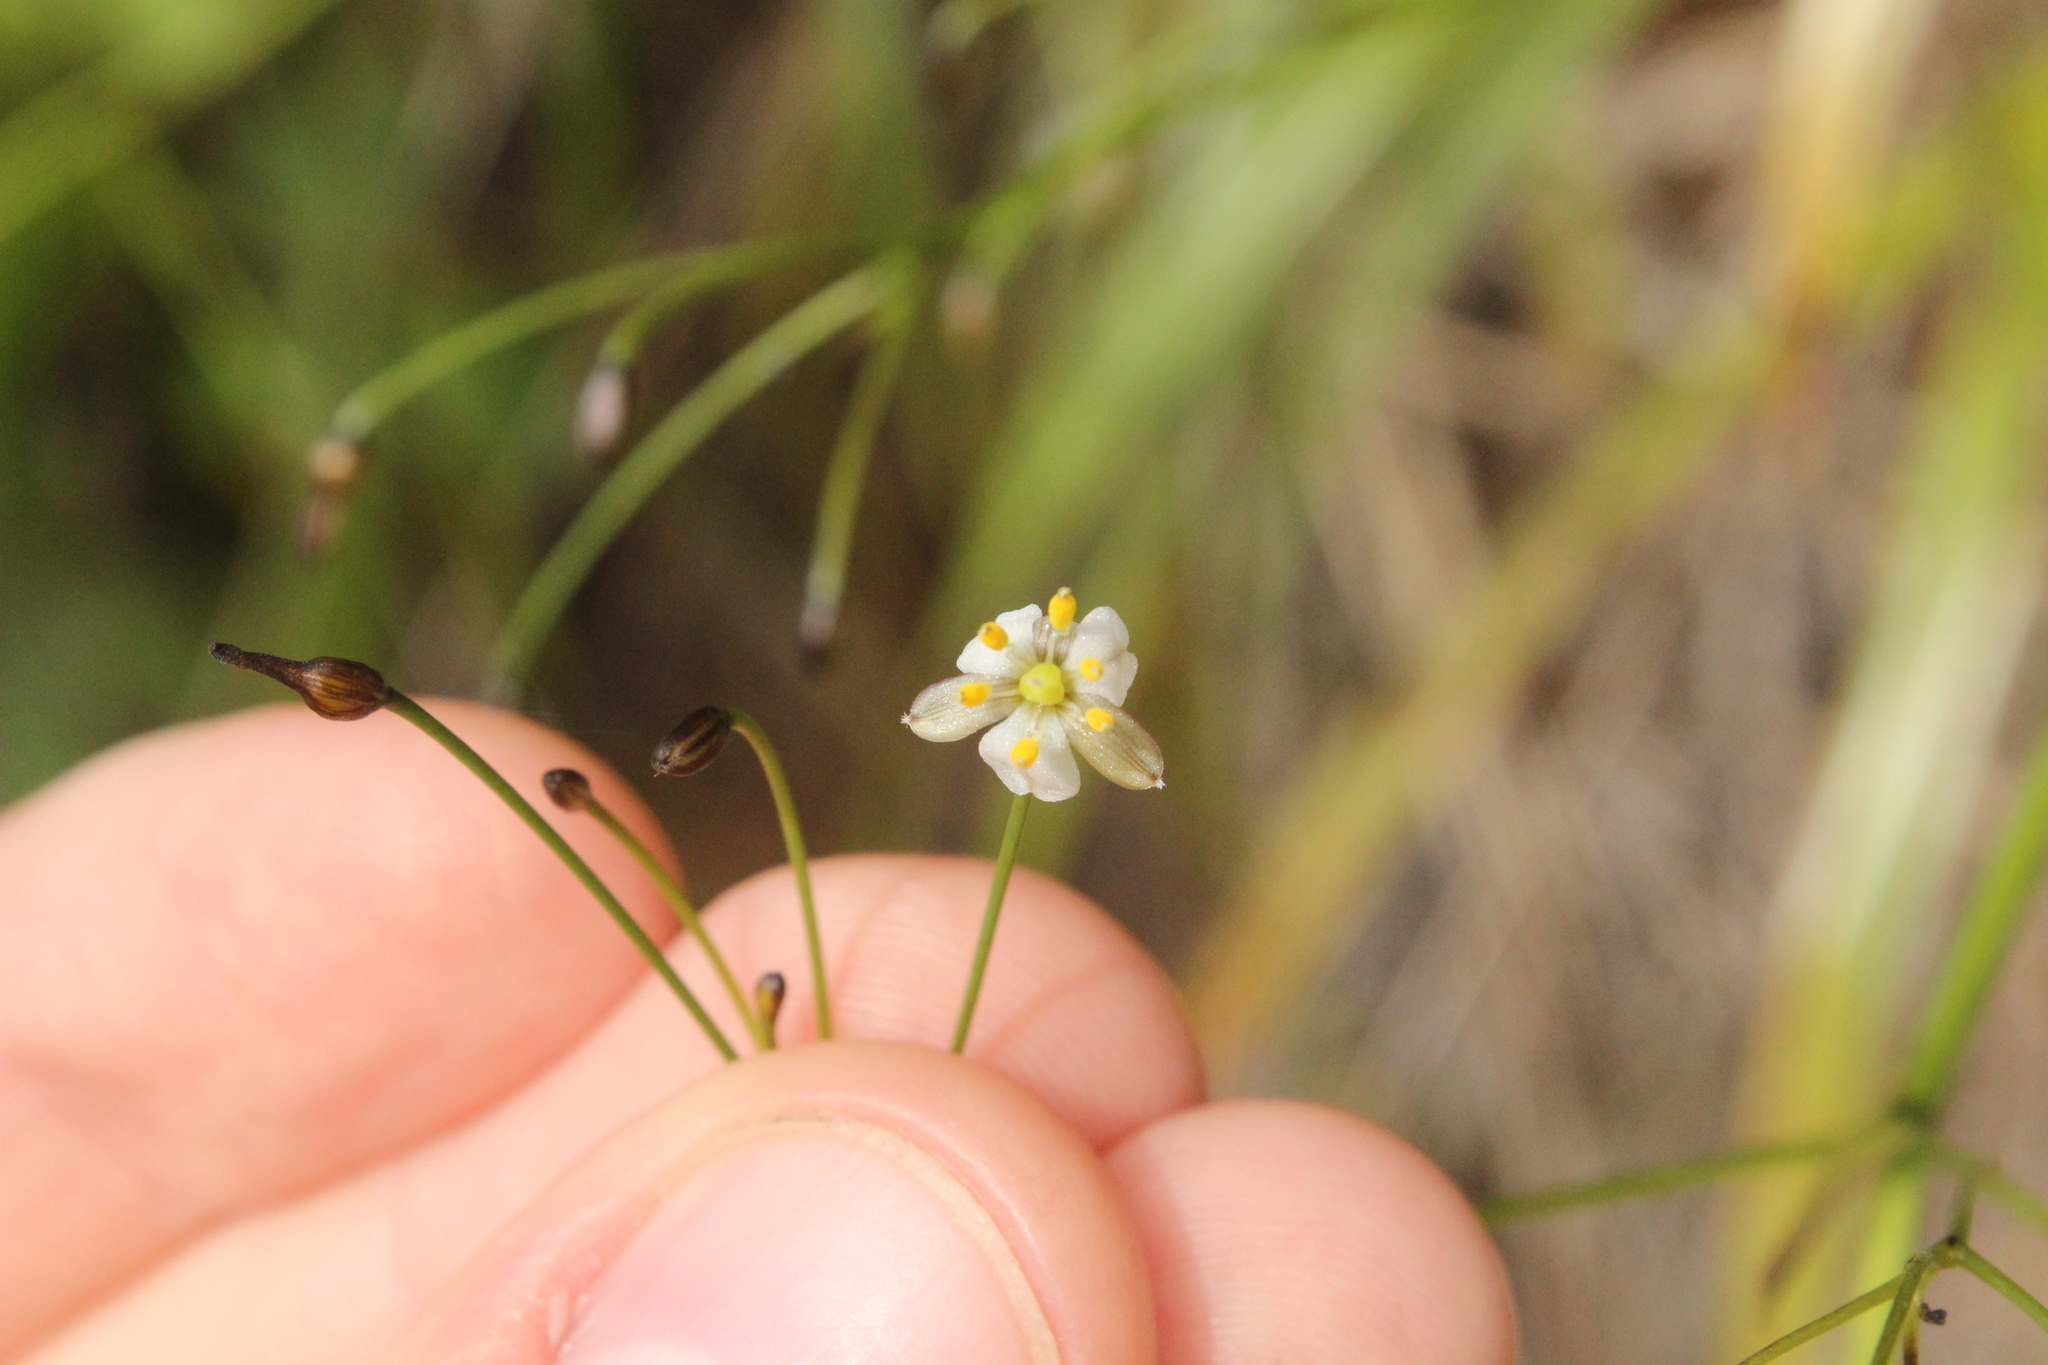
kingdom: Plantae
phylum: Tracheophyta
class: Liliopsida
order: Asparagales
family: Asphodelaceae
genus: Dianella
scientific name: Dianella nigra
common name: New zealand-blueberry
